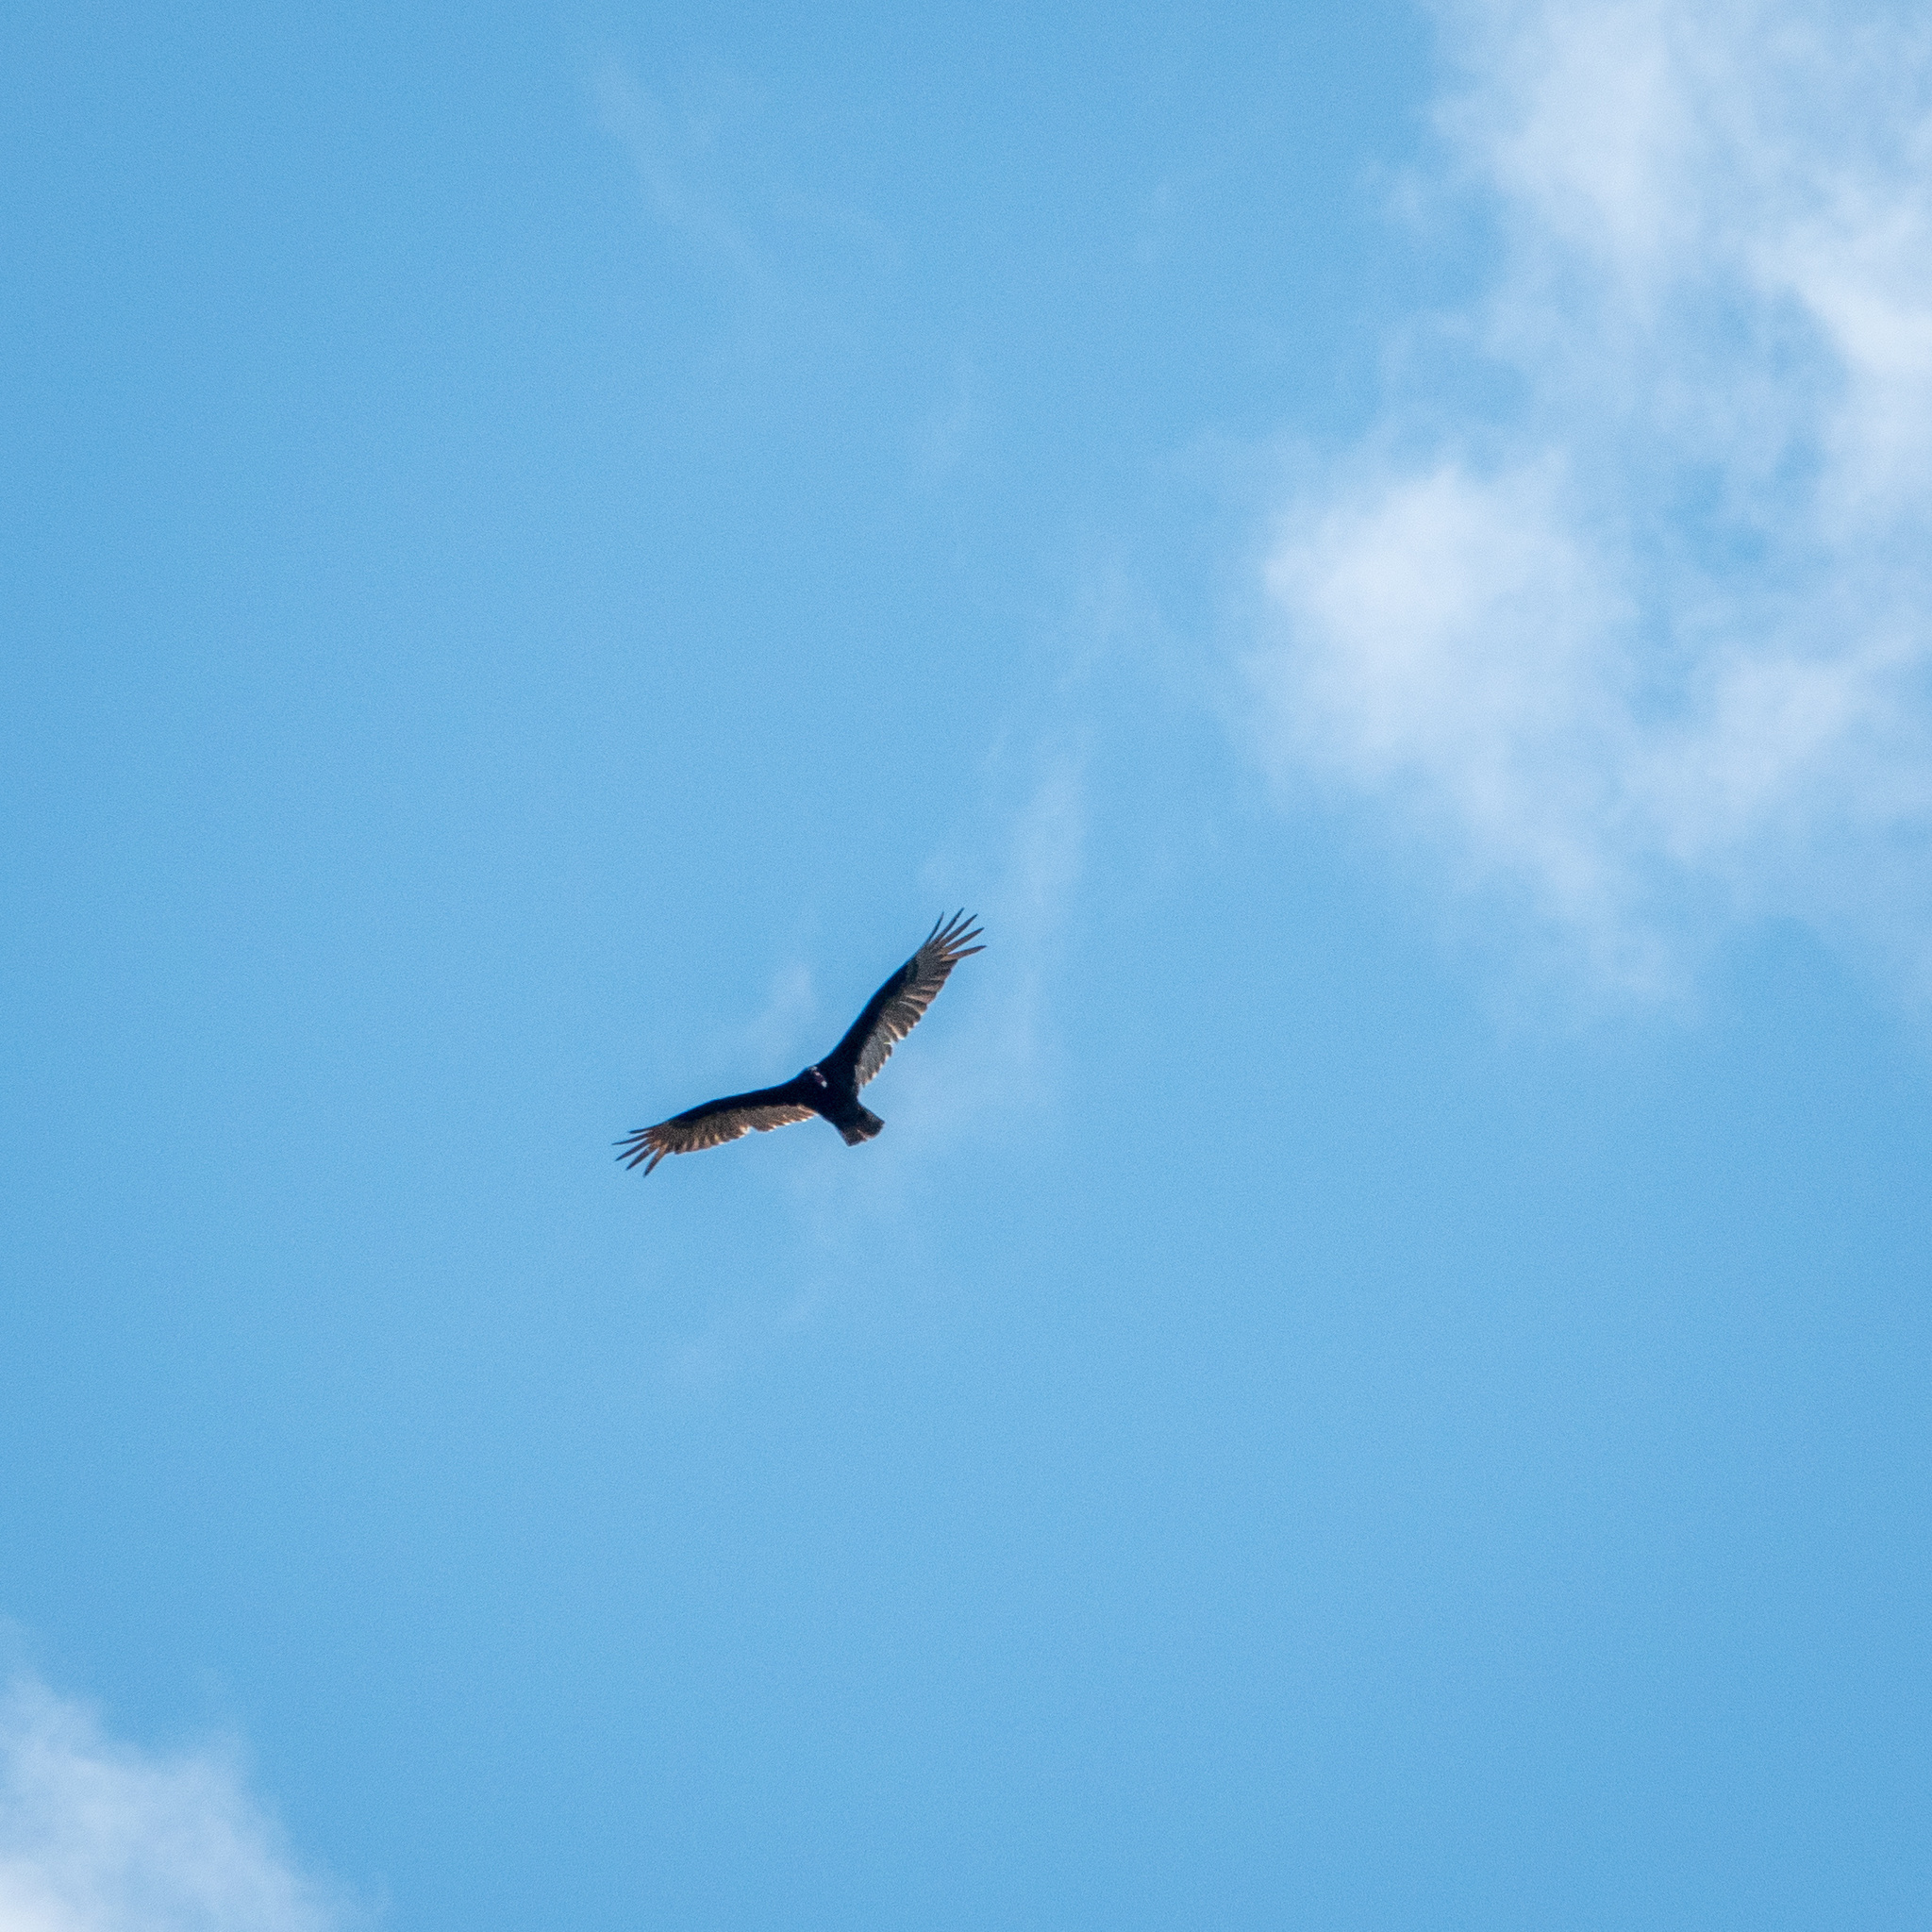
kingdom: Animalia
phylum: Chordata
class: Aves
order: Accipitriformes
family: Cathartidae
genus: Cathartes
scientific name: Cathartes aura
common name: Turkey vulture
